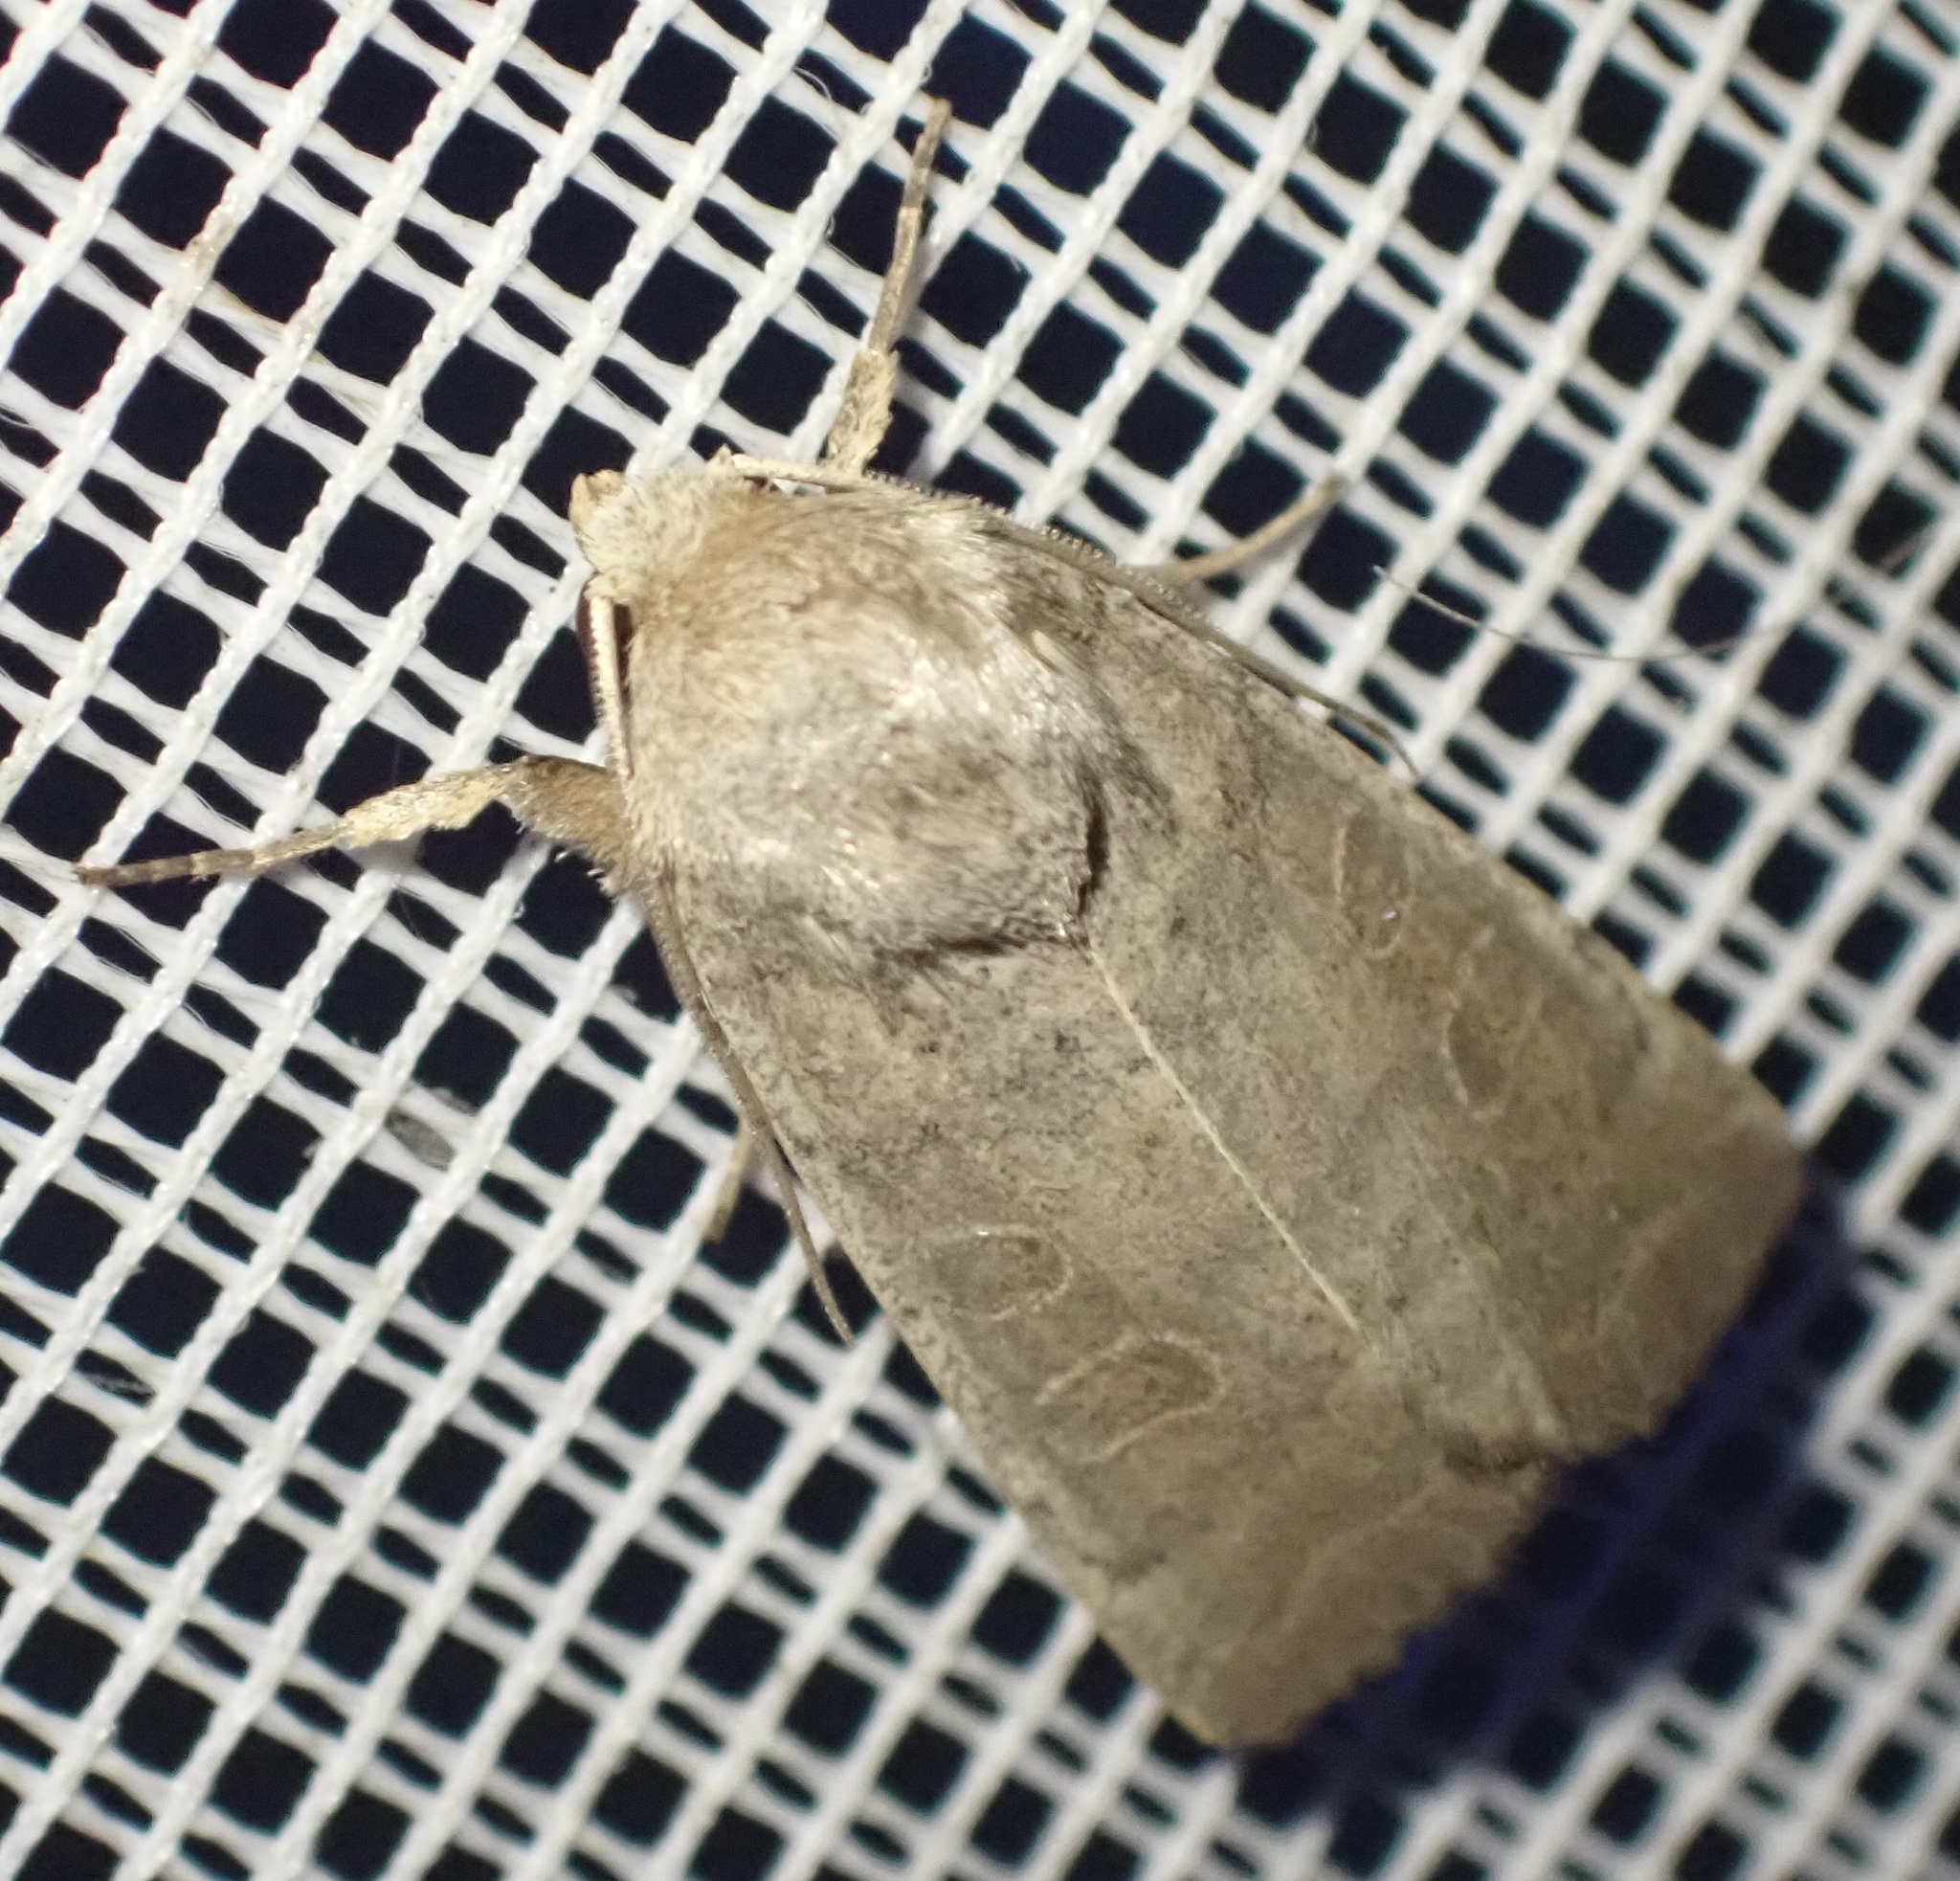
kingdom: Animalia
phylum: Arthropoda
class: Insecta
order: Lepidoptera
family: Noctuidae
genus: Hoplodrina
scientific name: Hoplodrina ambigua
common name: Vine's rustic
